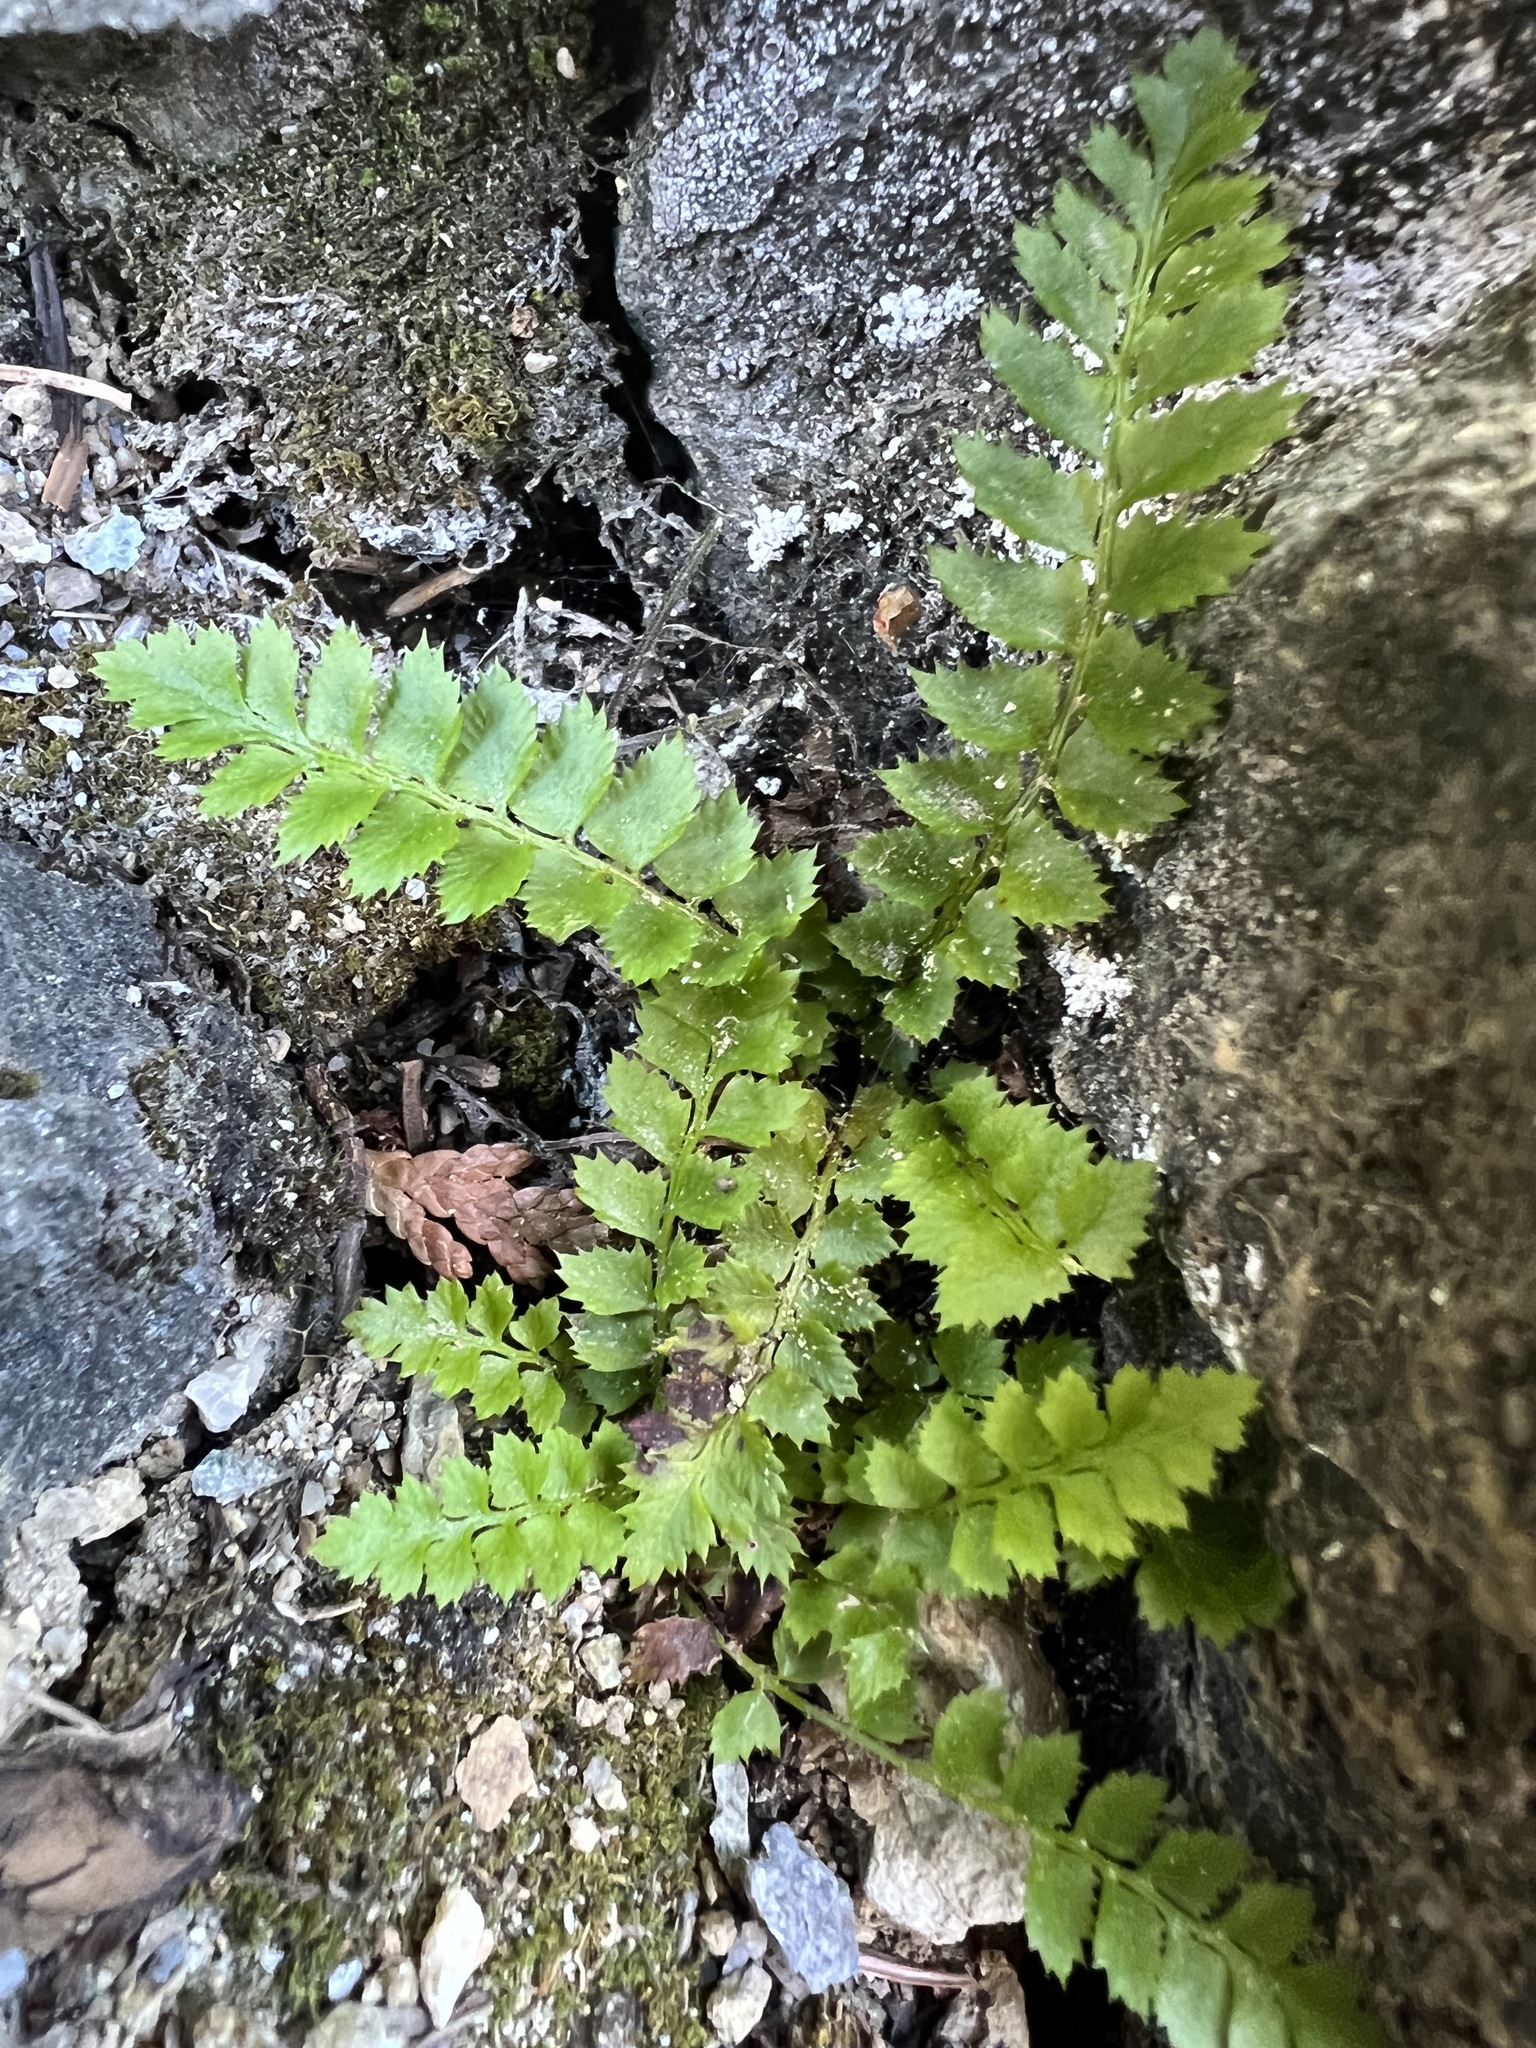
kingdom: Plantae
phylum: Tracheophyta
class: Polypodiopsida
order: Polypodiales
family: Dryopteridaceae
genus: Polystichum
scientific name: Polystichum lonchitis
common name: Holly fern
